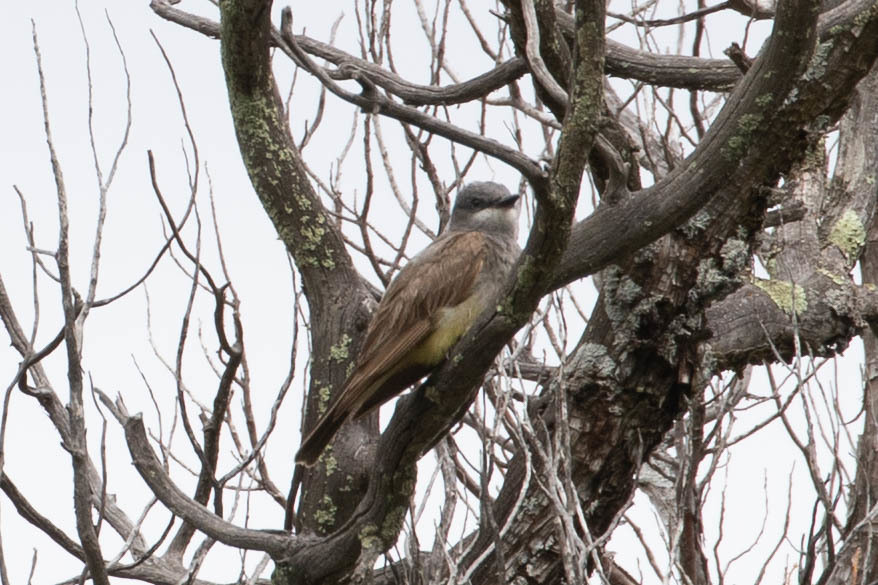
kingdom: Animalia
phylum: Chordata
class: Aves
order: Passeriformes
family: Tyrannidae
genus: Tyrannus
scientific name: Tyrannus vociferans
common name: Cassin's kingbird
